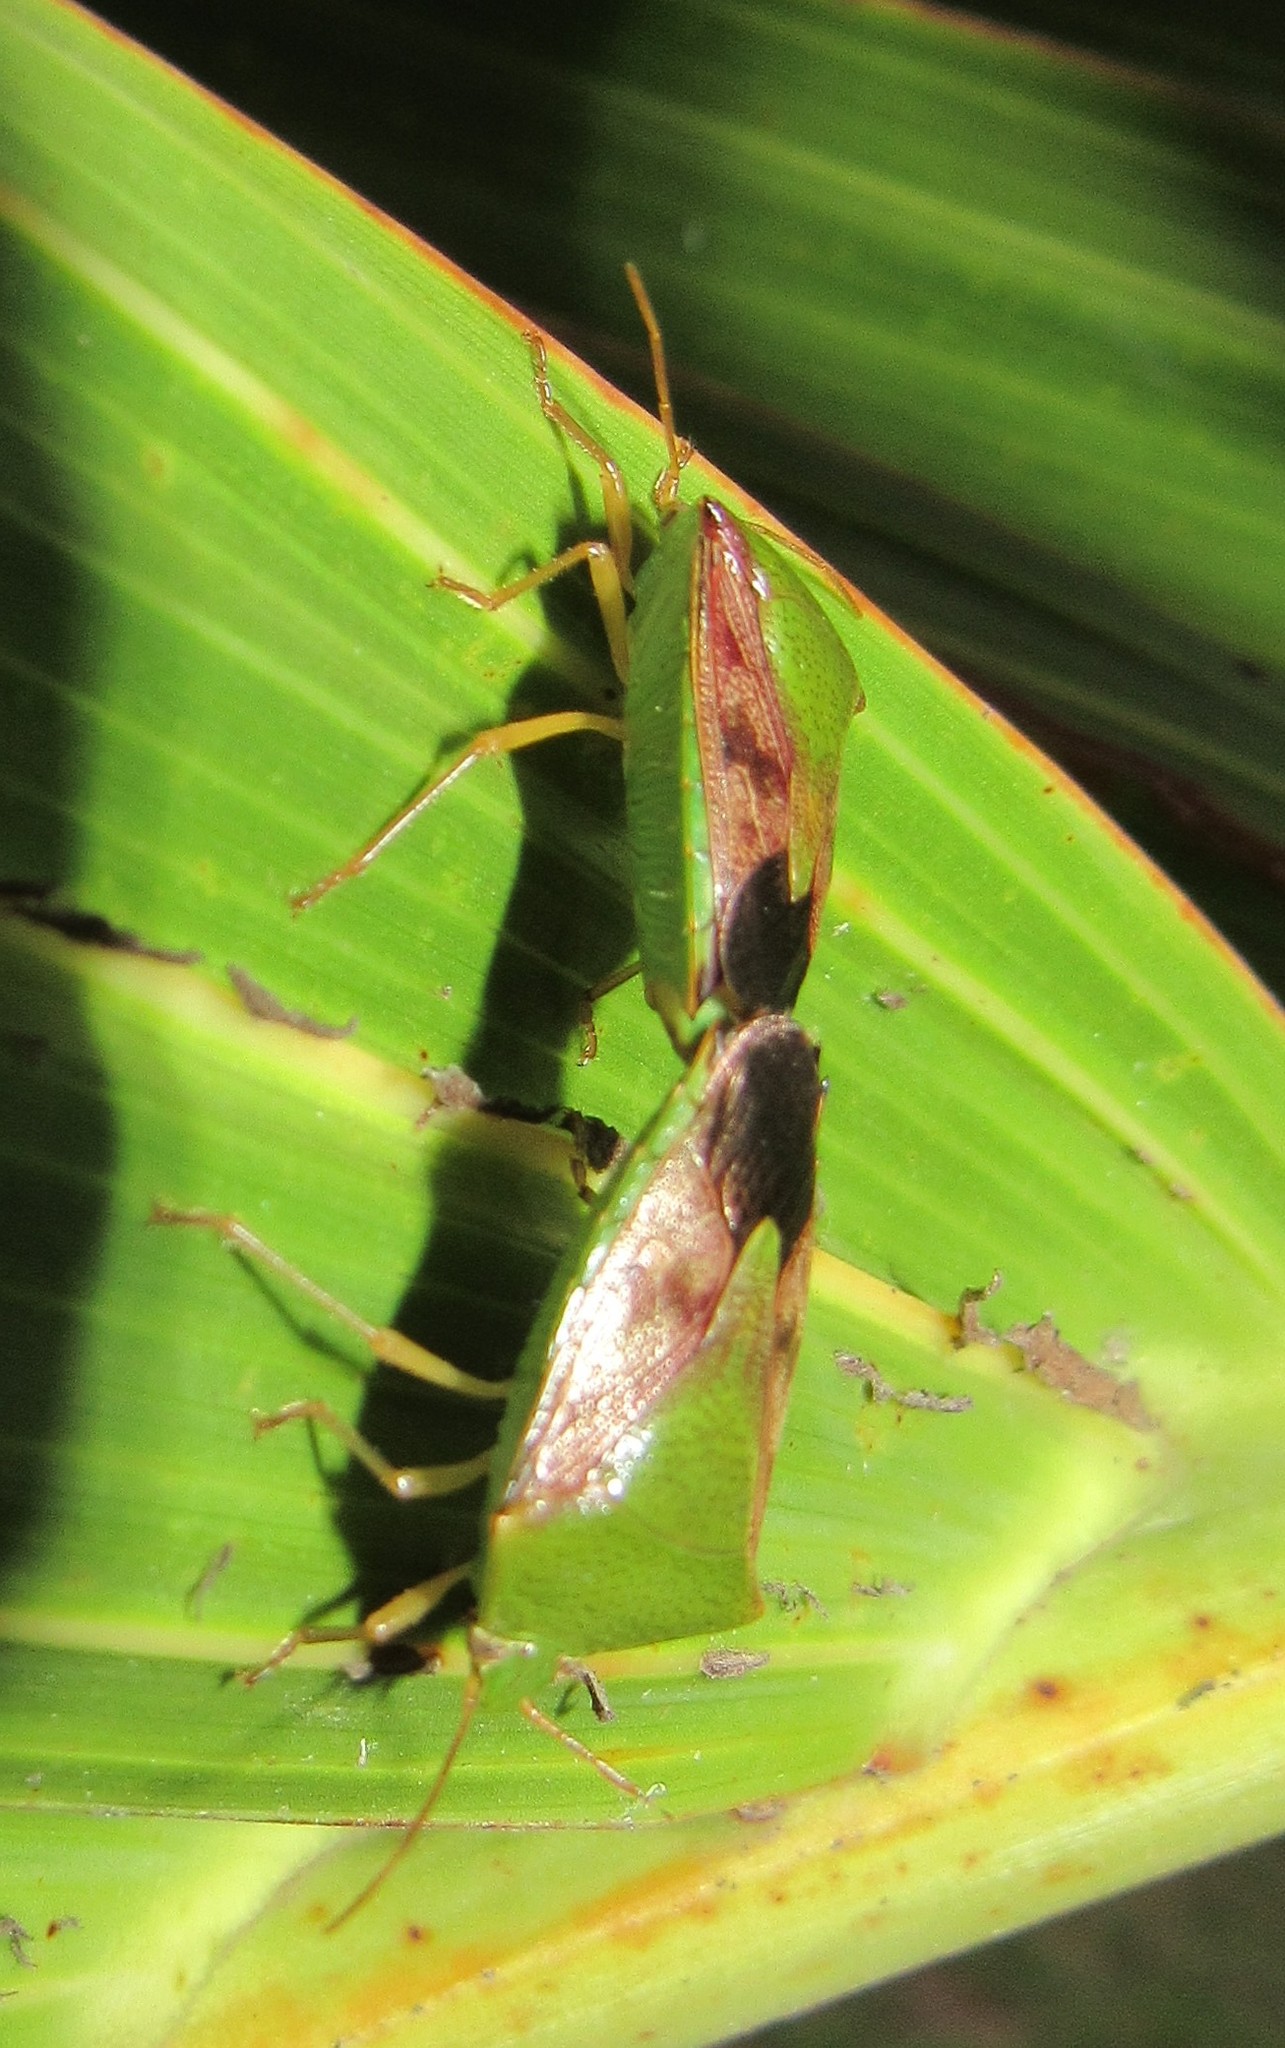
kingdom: Animalia
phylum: Arthropoda
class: Insecta
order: Hemiptera
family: Pentatomidae
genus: Hypoxys
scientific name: Hypoxys subrastratus
